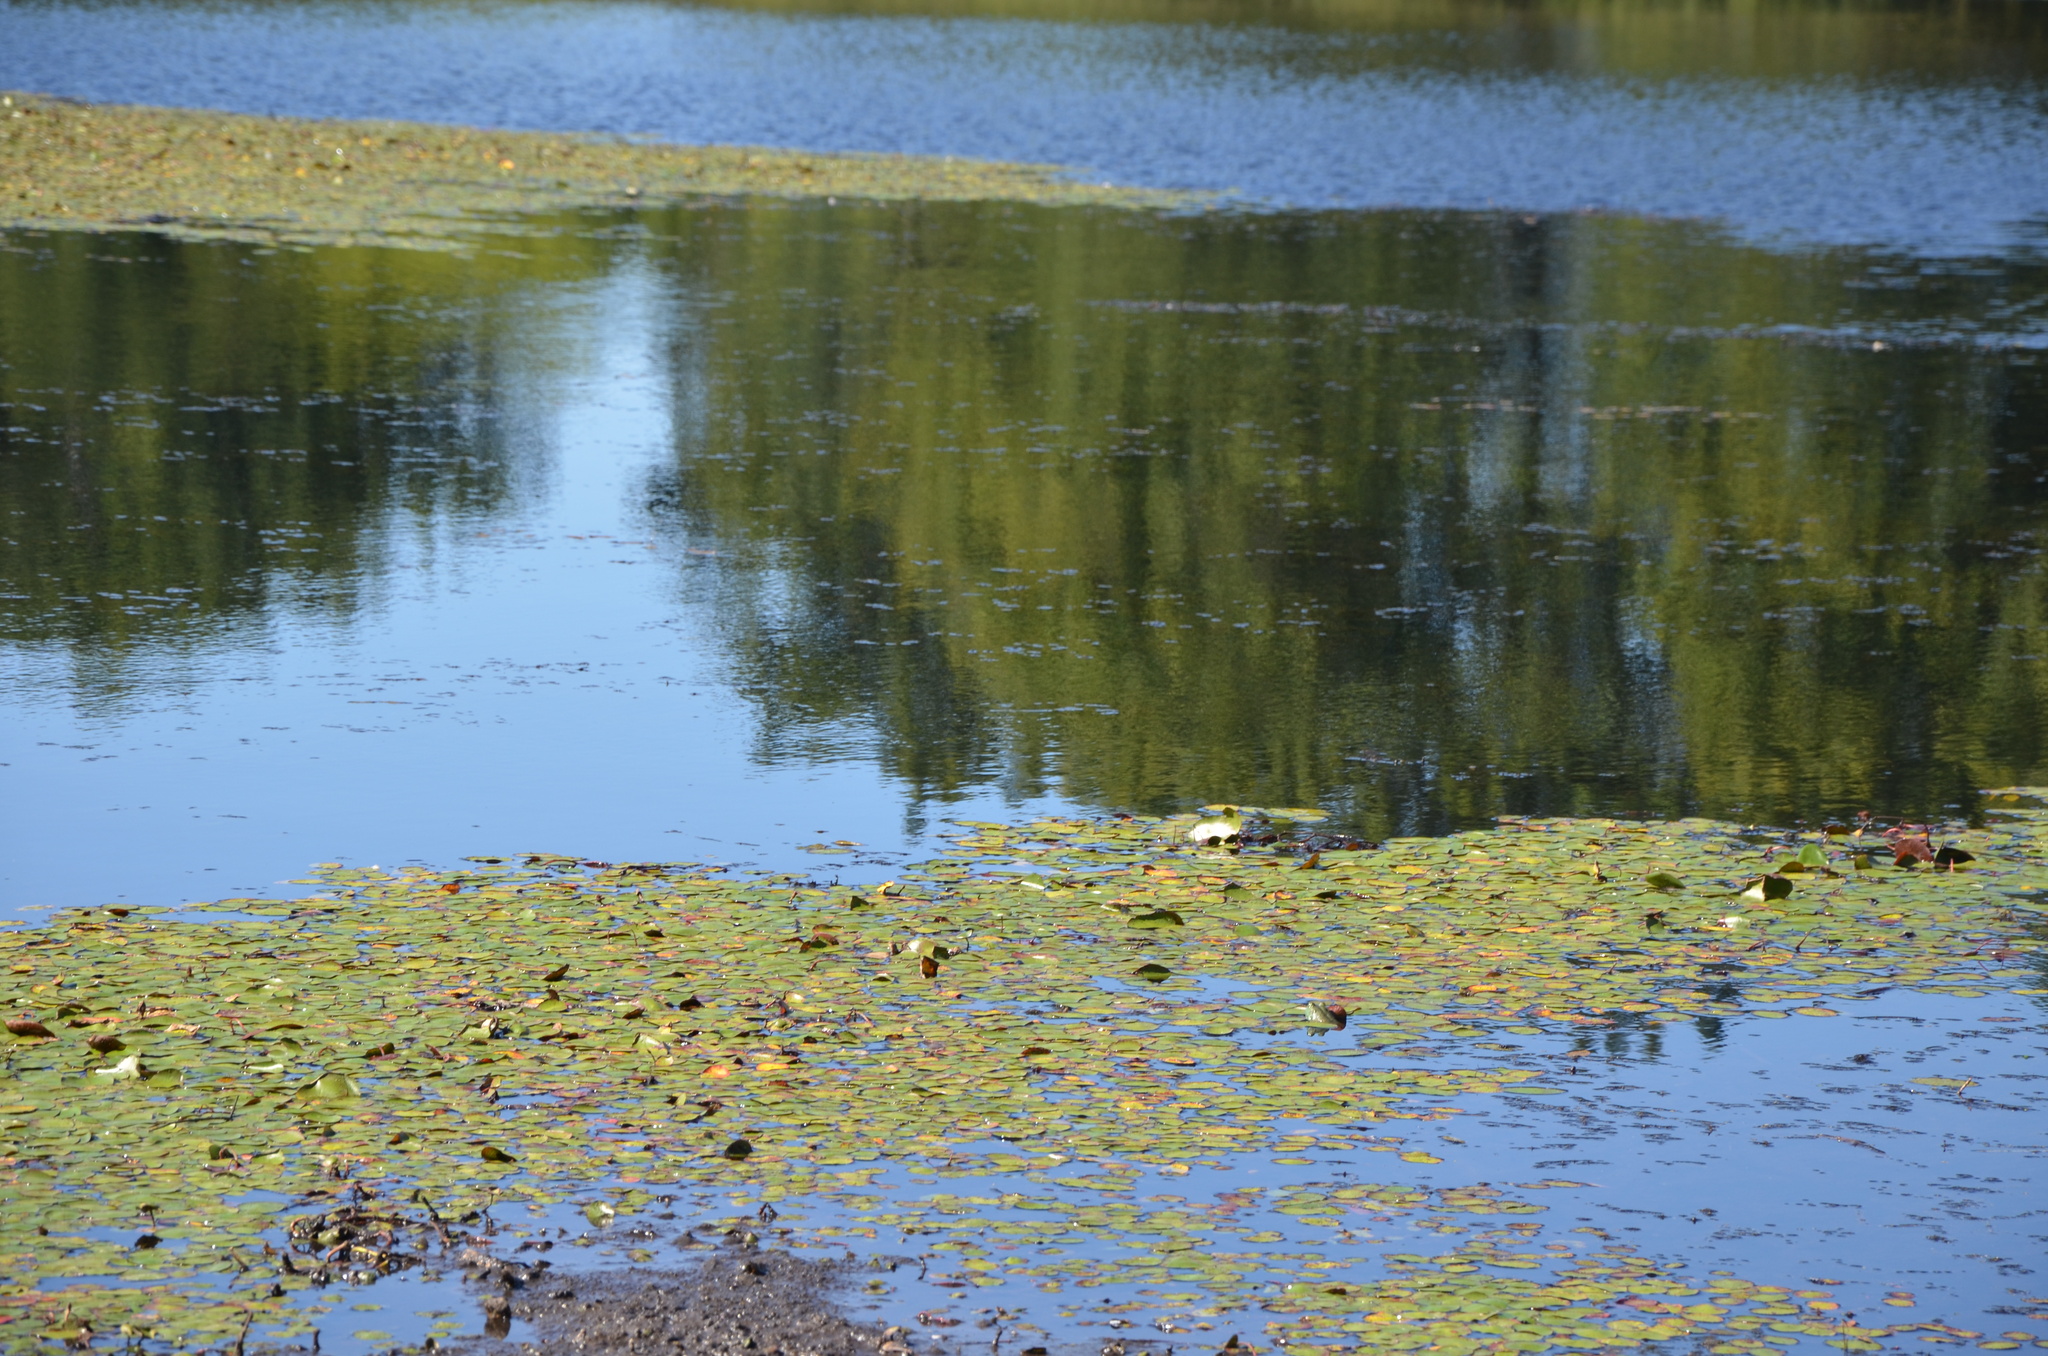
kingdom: Animalia
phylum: Chordata
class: Amphibia
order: Anura
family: Ranidae
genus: Lithobates
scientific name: Lithobates catesbeianus
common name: American bullfrog
